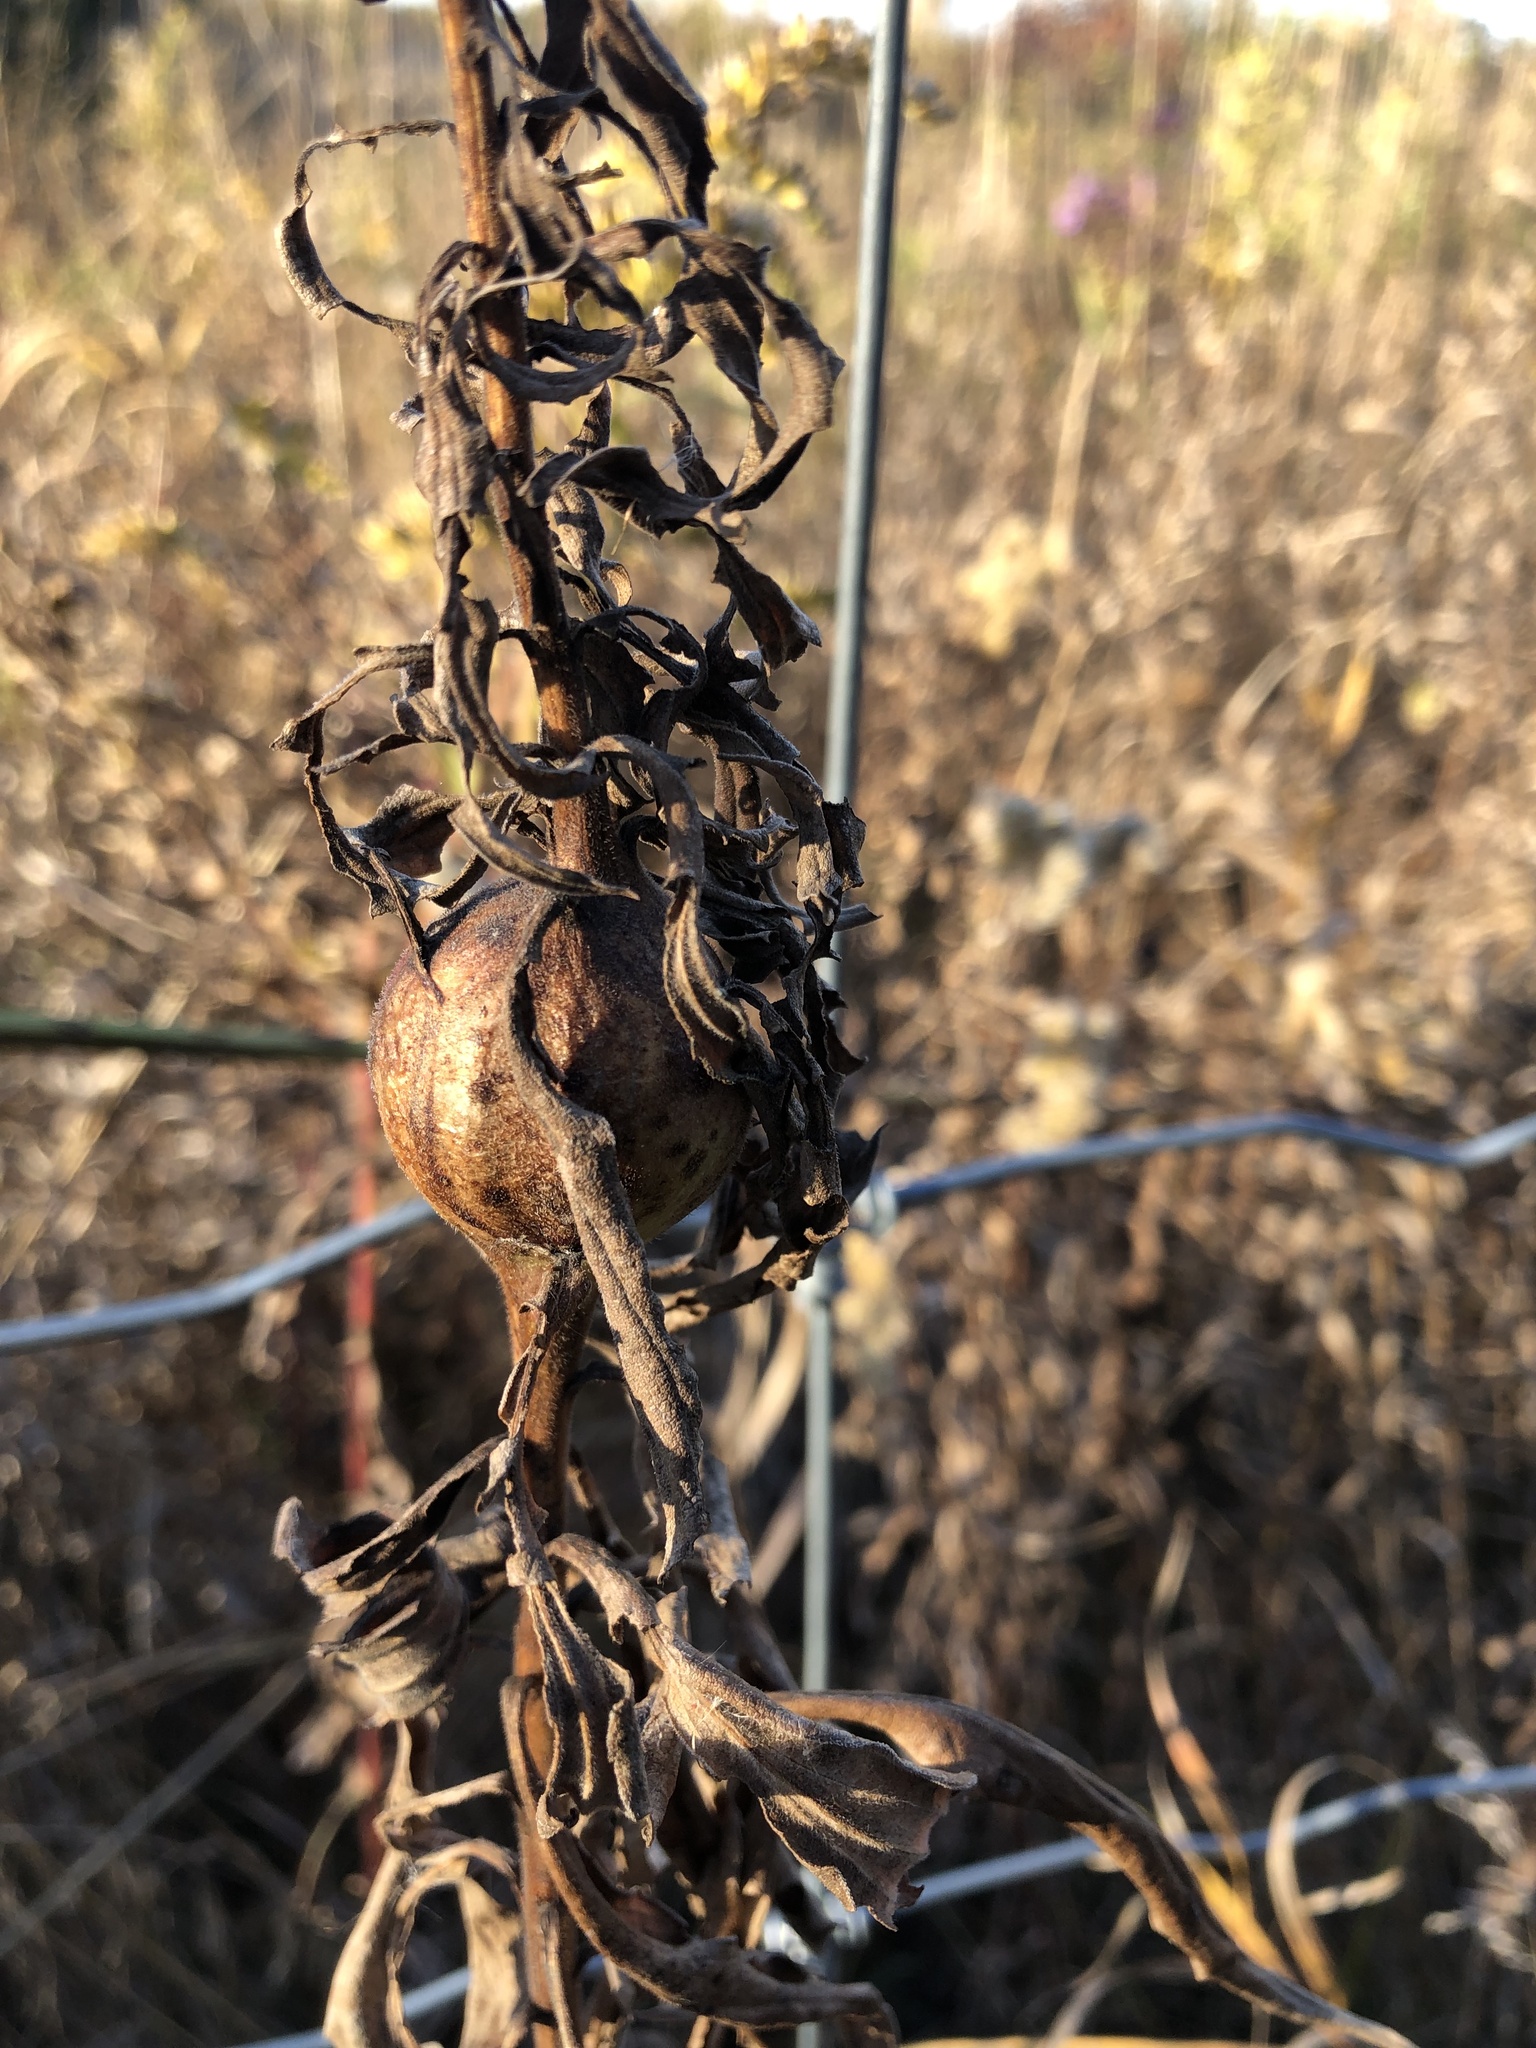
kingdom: Animalia
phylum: Arthropoda
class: Insecta
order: Diptera
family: Tephritidae
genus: Eurosta
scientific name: Eurosta solidaginis
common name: Goldenrod gall fly
